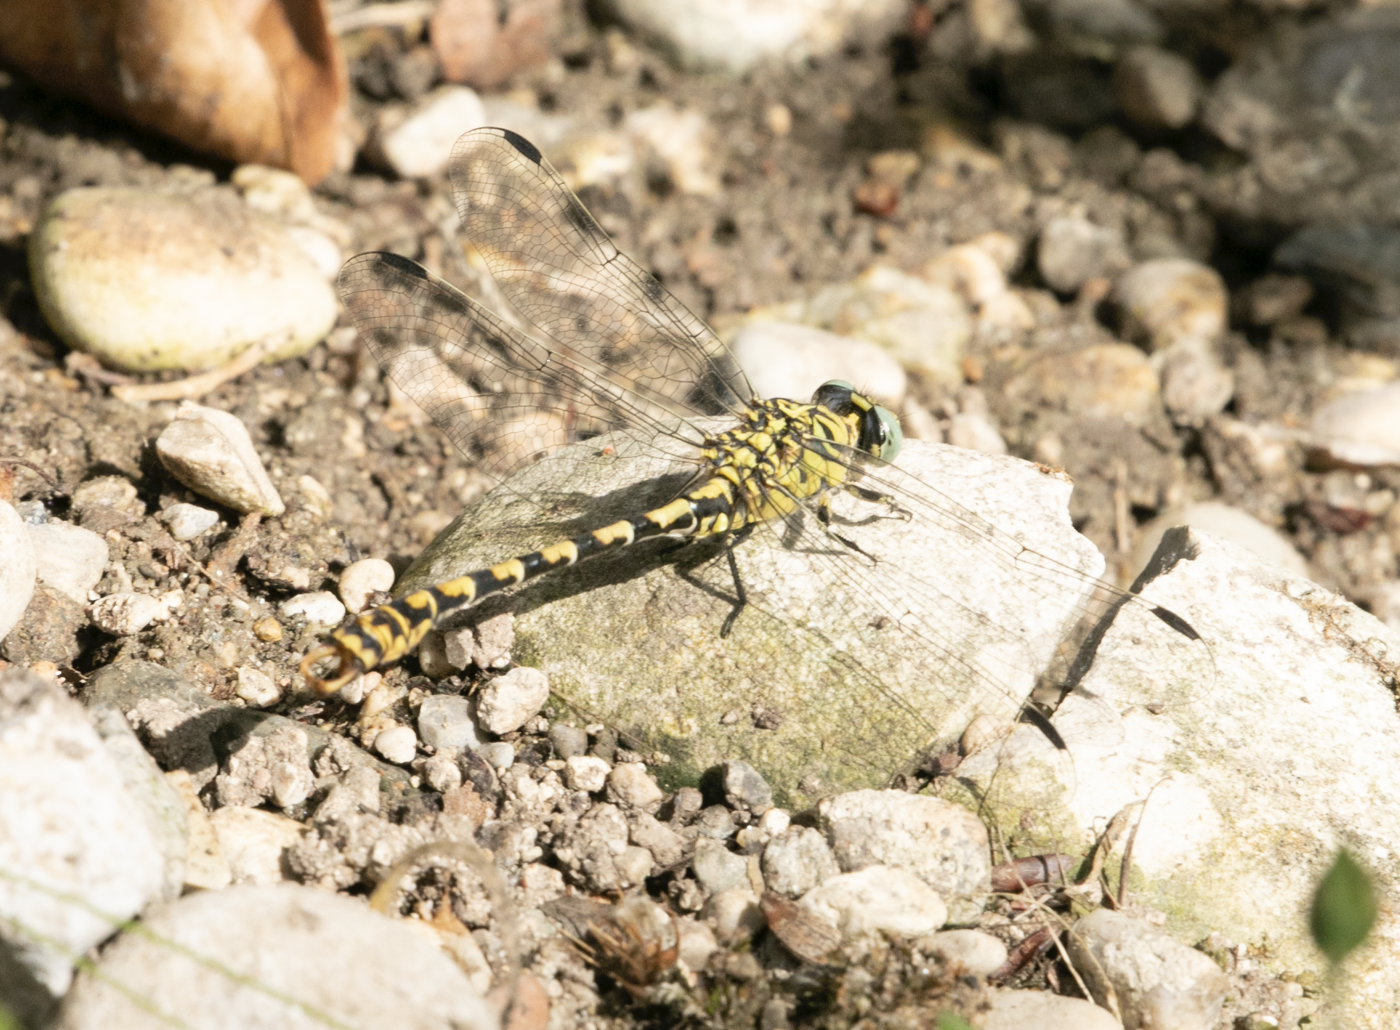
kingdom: Animalia
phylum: Arthropoda
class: Insecta
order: Odonata
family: Gomphidae
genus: Onychogomphus
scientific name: Onychogomphus forcipatus
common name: Small pincertail
